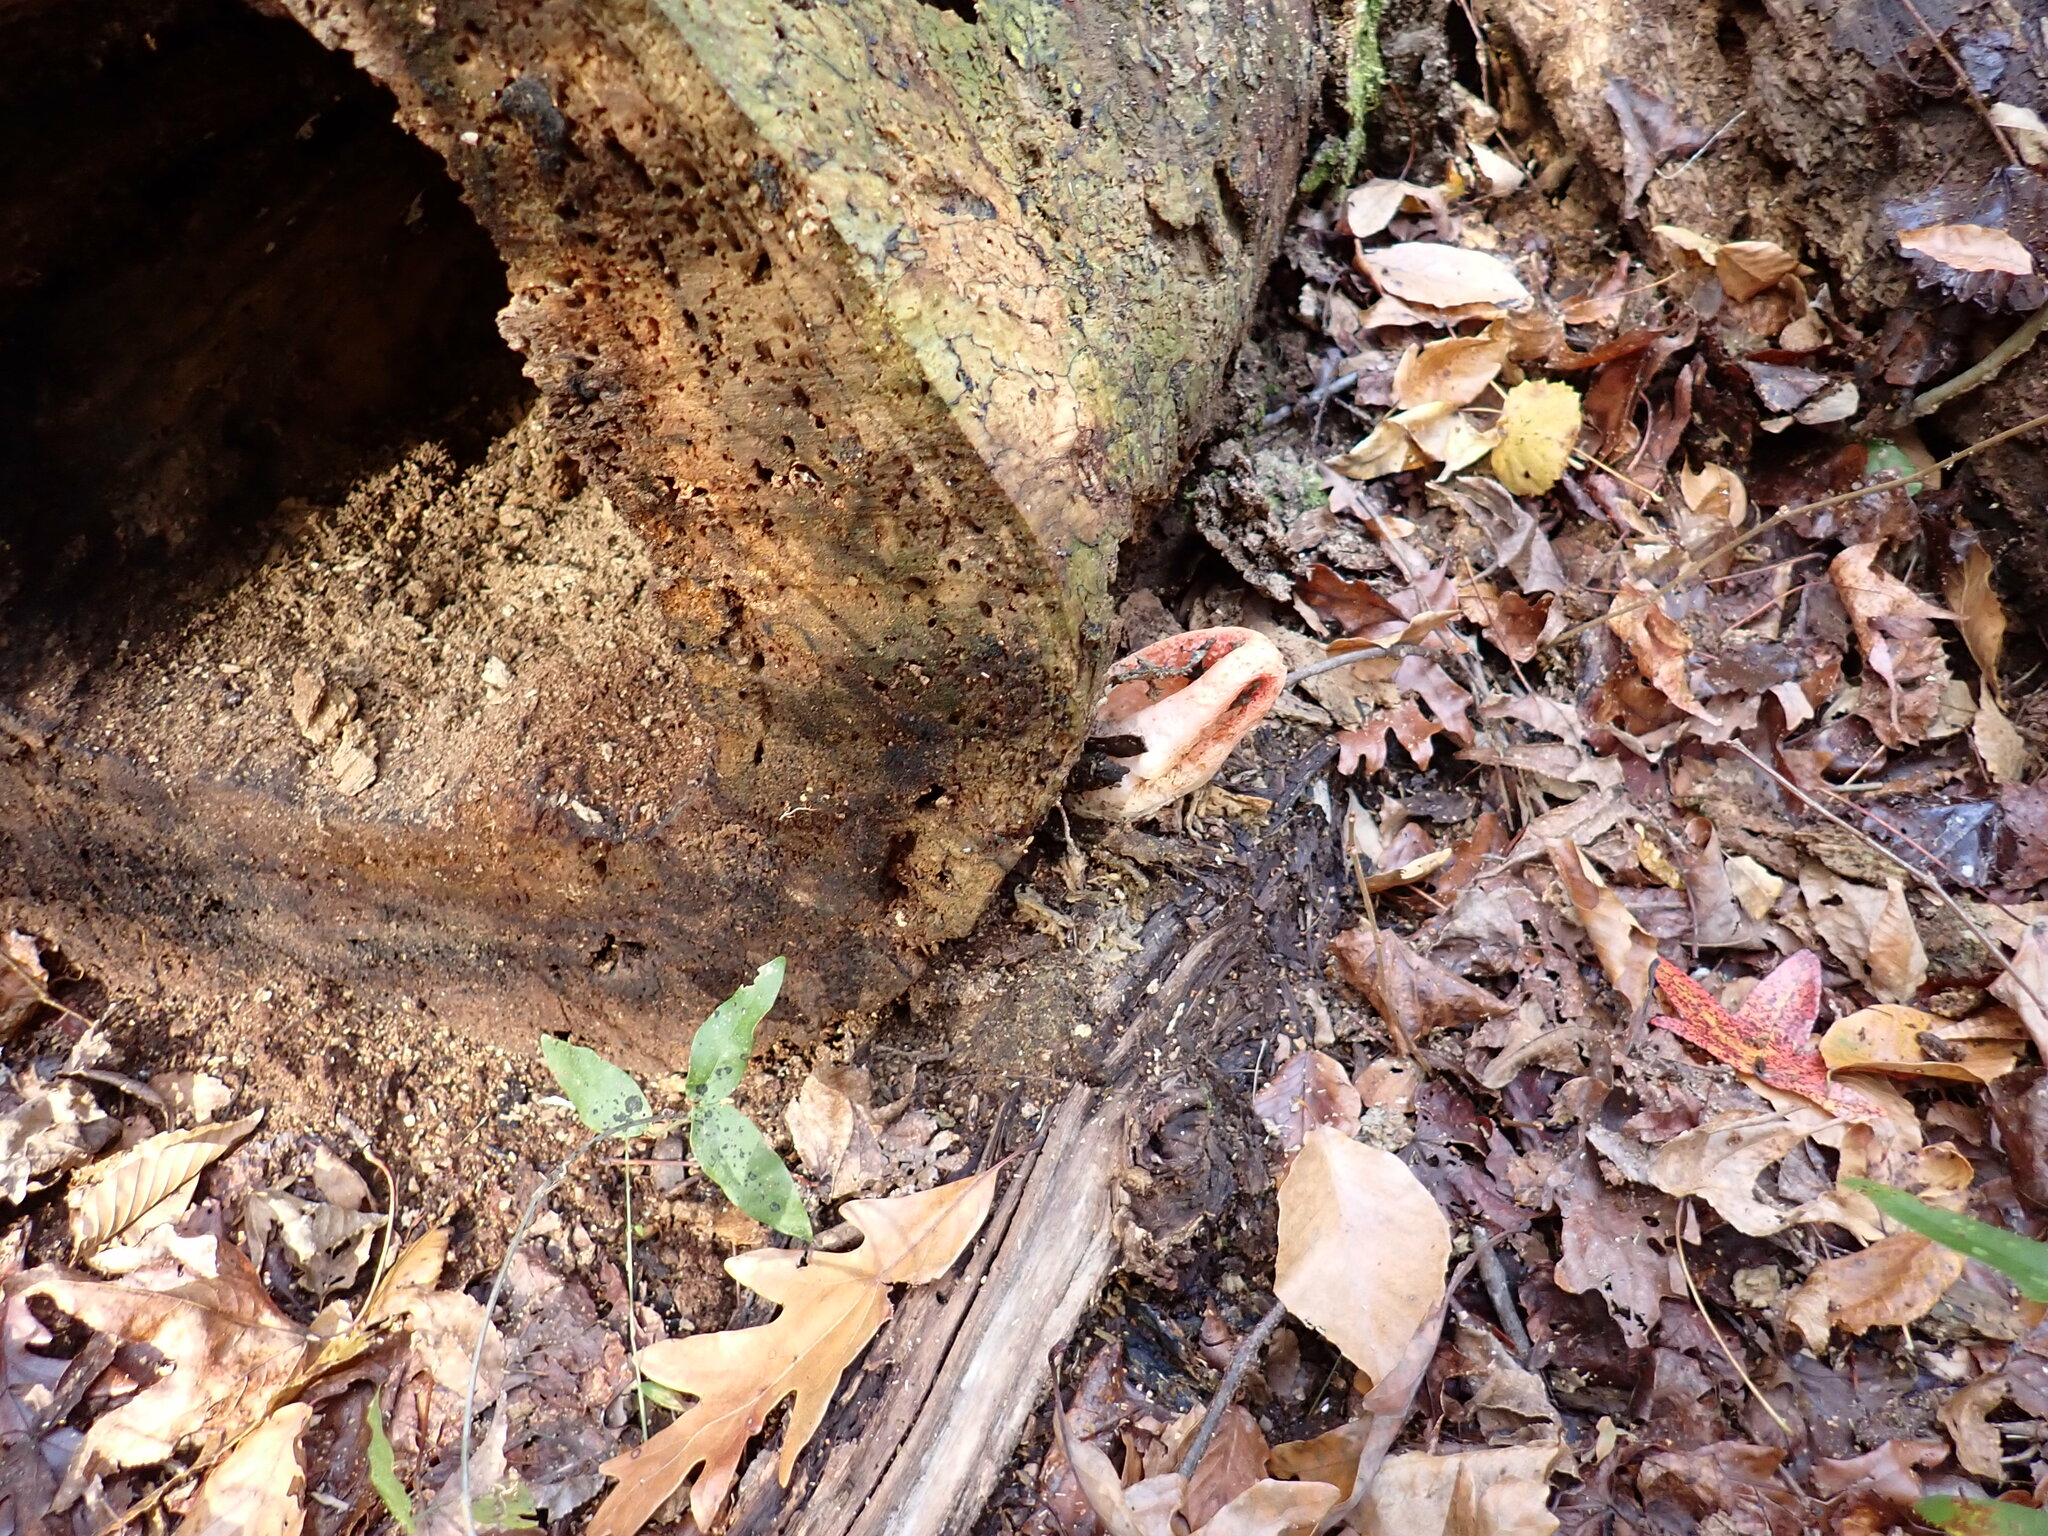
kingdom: Fungi
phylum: Basidiomycota
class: Agaricomycetes
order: Phallales
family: Phallaceae
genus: Clathrus
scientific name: Clathrus columnatus
